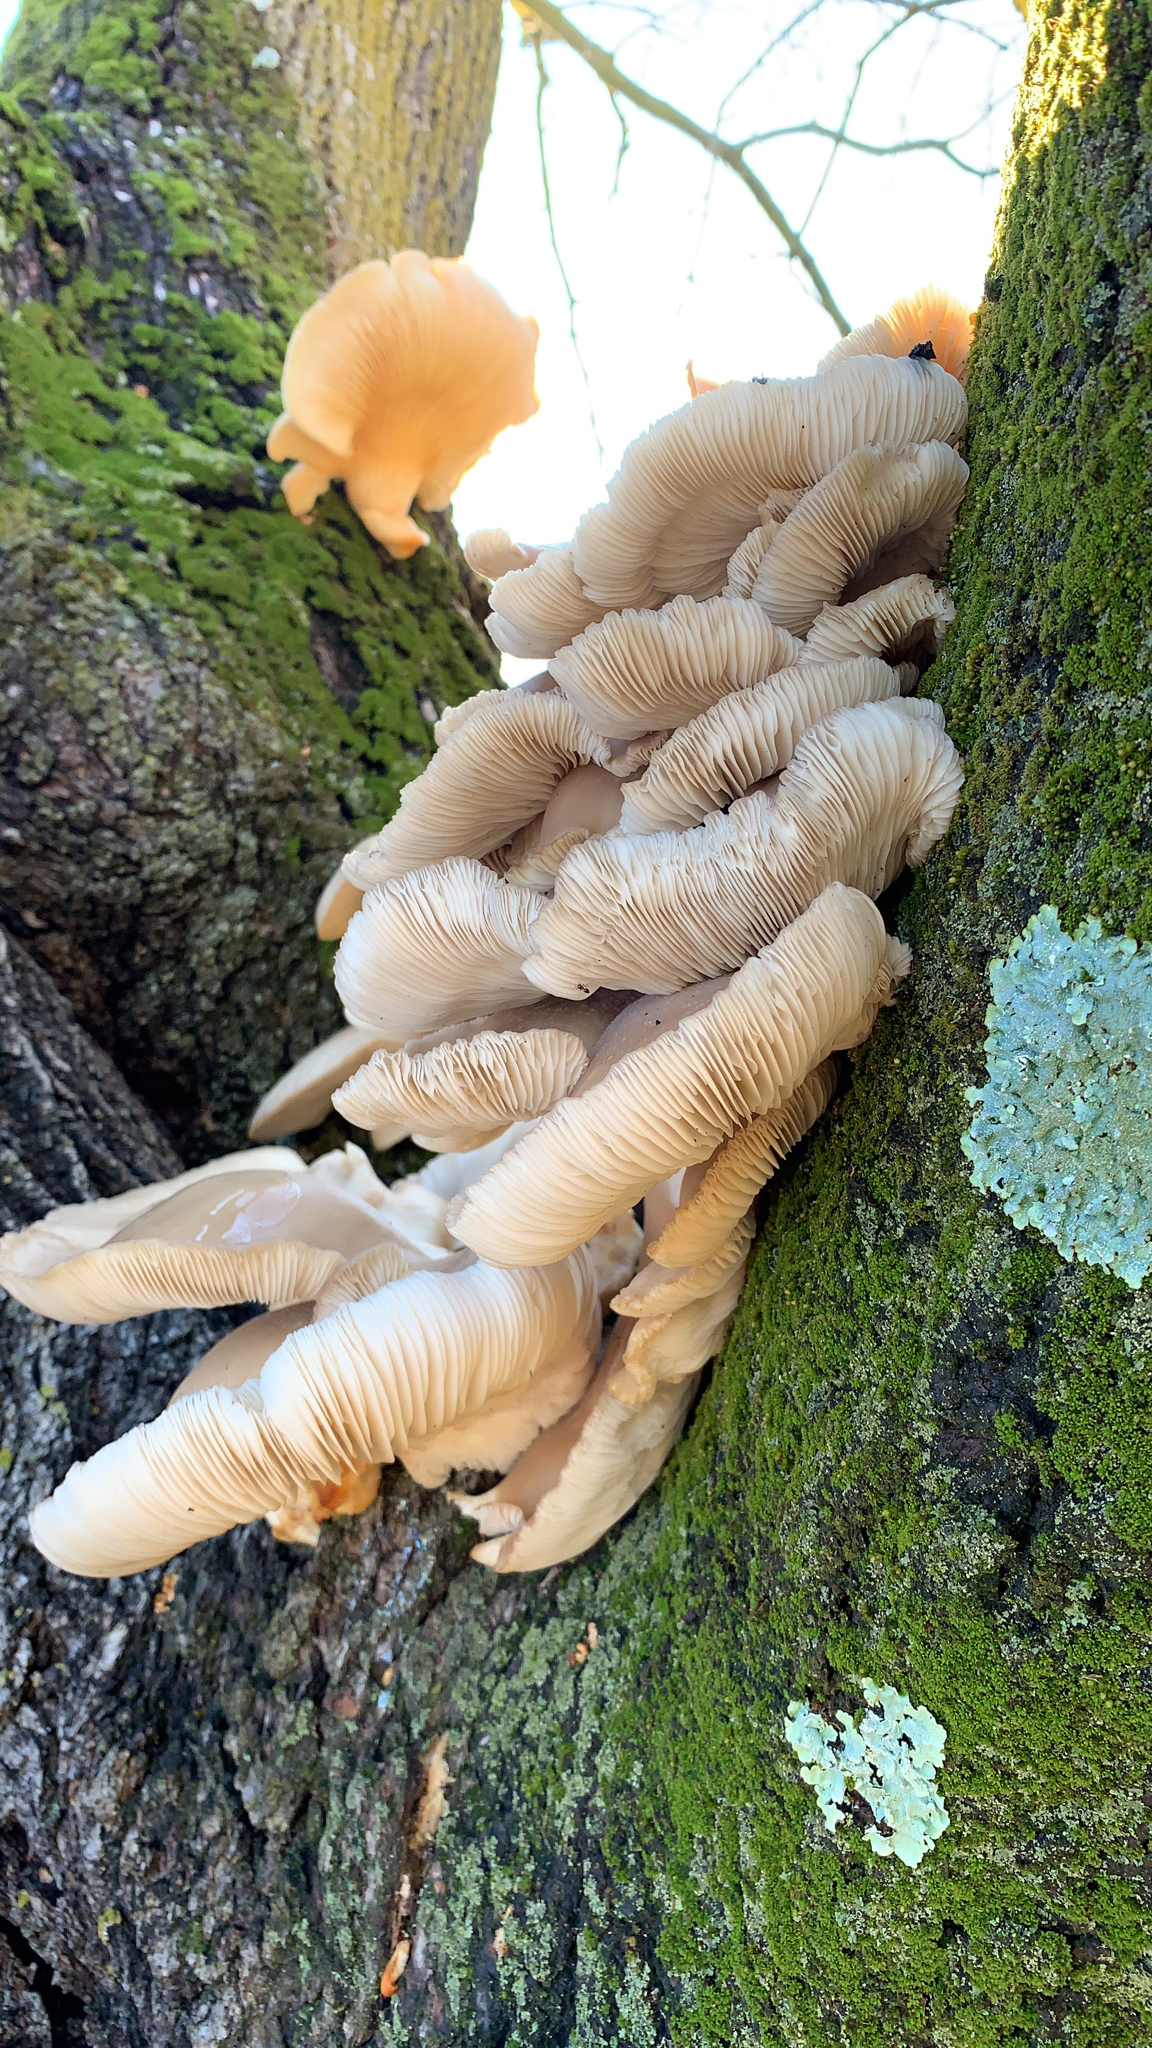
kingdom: Fungi
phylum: Basidiomycota
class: Agaricomycetes
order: Agaricales
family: Pleurotaceae
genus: Pleurotus
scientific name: Pleurotus ostreatus
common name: Oyster mushroom
